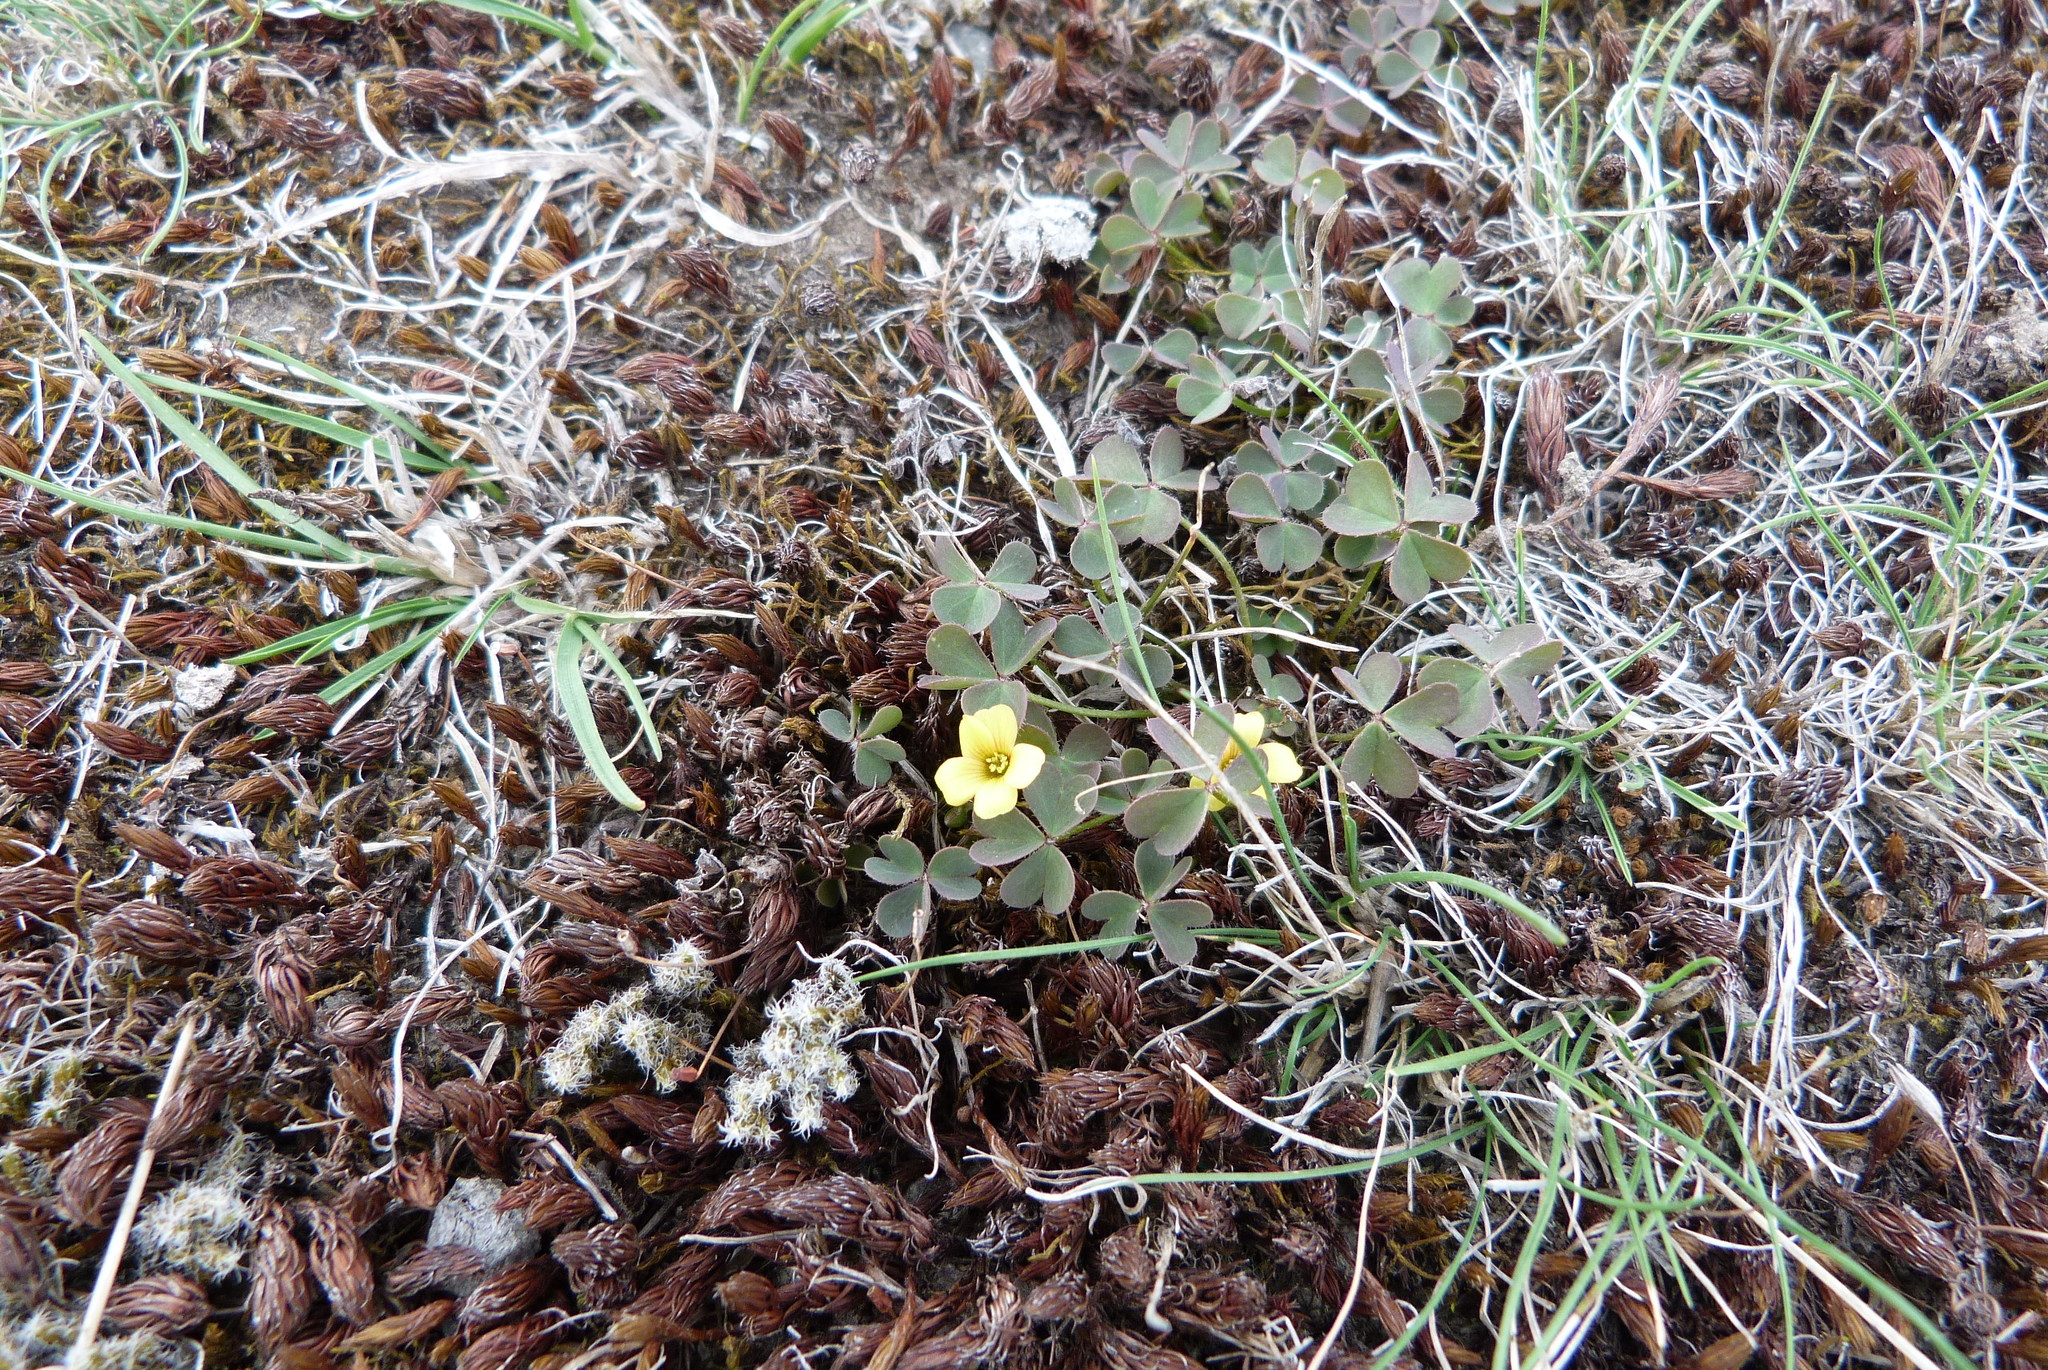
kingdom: Plantae
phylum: Tracheophyta
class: Magnoliopsida
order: Oxalidales
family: Oxalidaceae
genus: Oxalis
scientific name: Oxalis corniculata
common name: Procumbent yellow-sorrel
